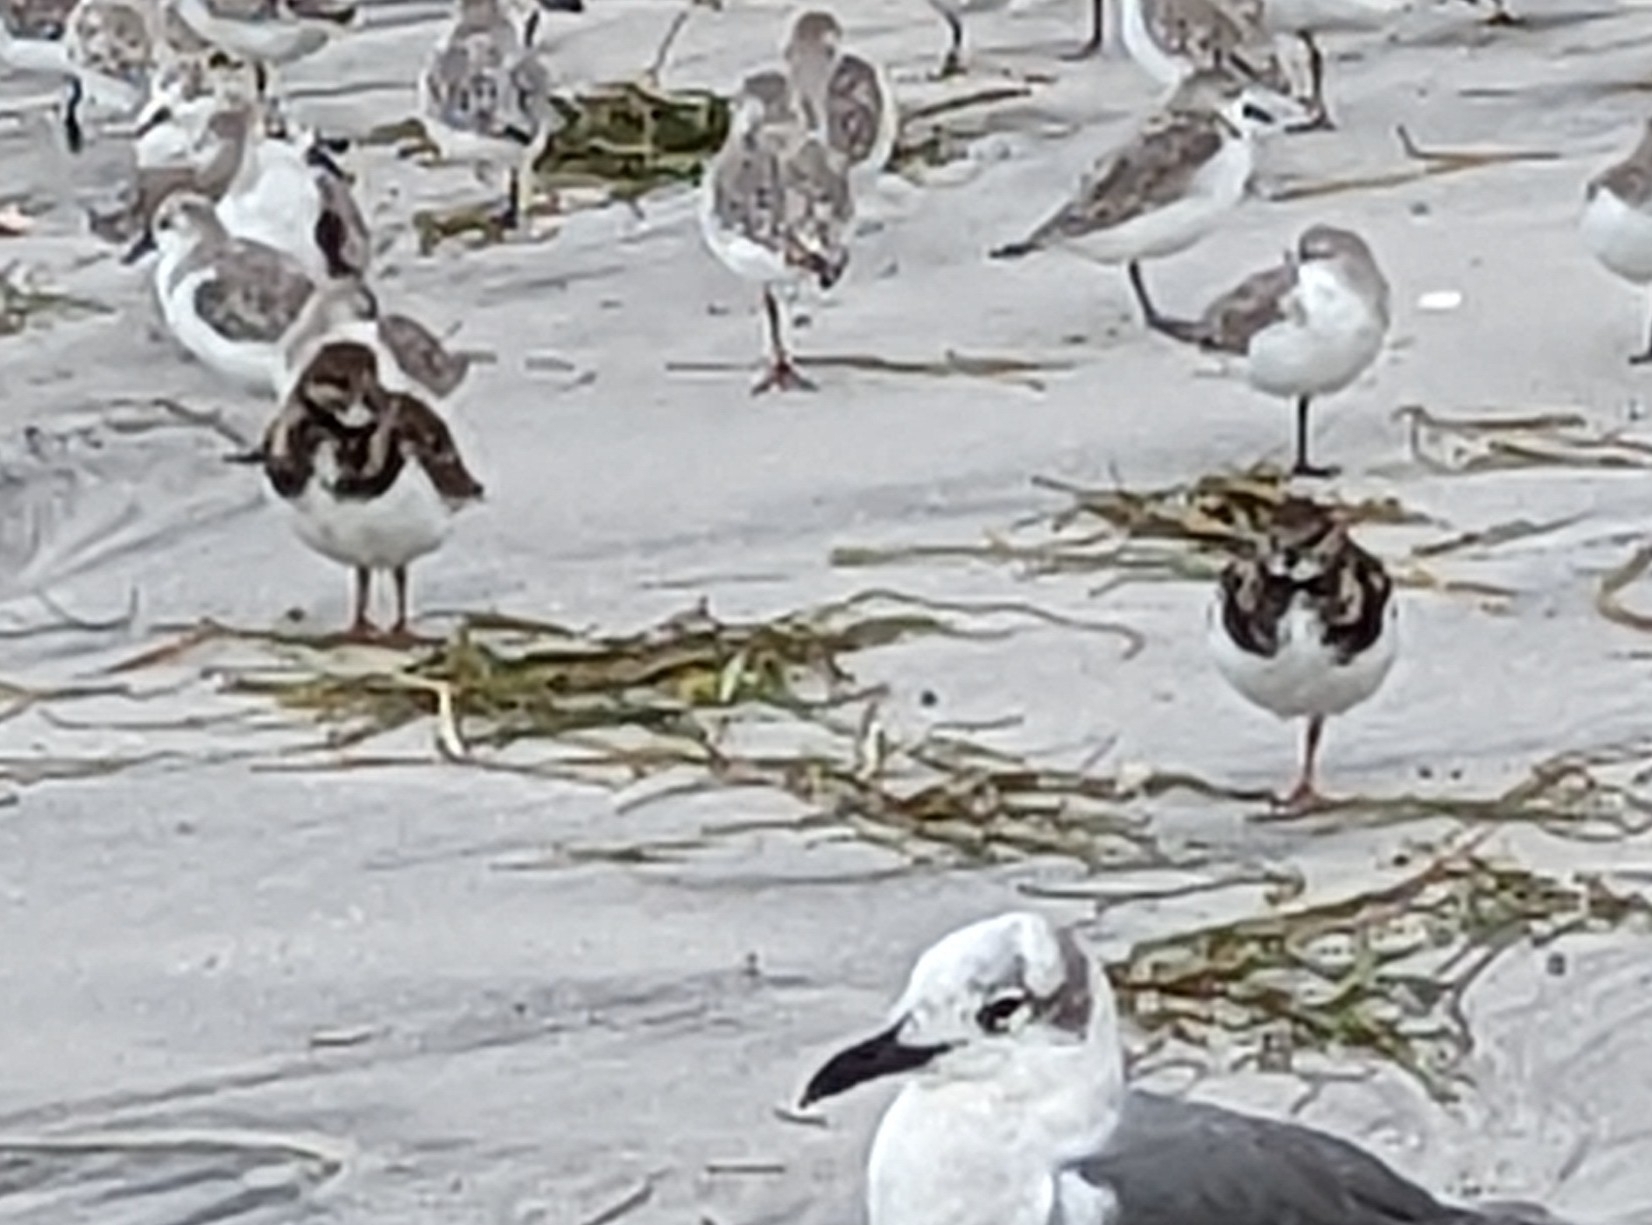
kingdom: Animalia
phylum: Chordata
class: Aves
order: Charadriiformes
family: Scolopacidae
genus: Arenaria
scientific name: Arenaria interpres
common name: Ruddy turnstone
